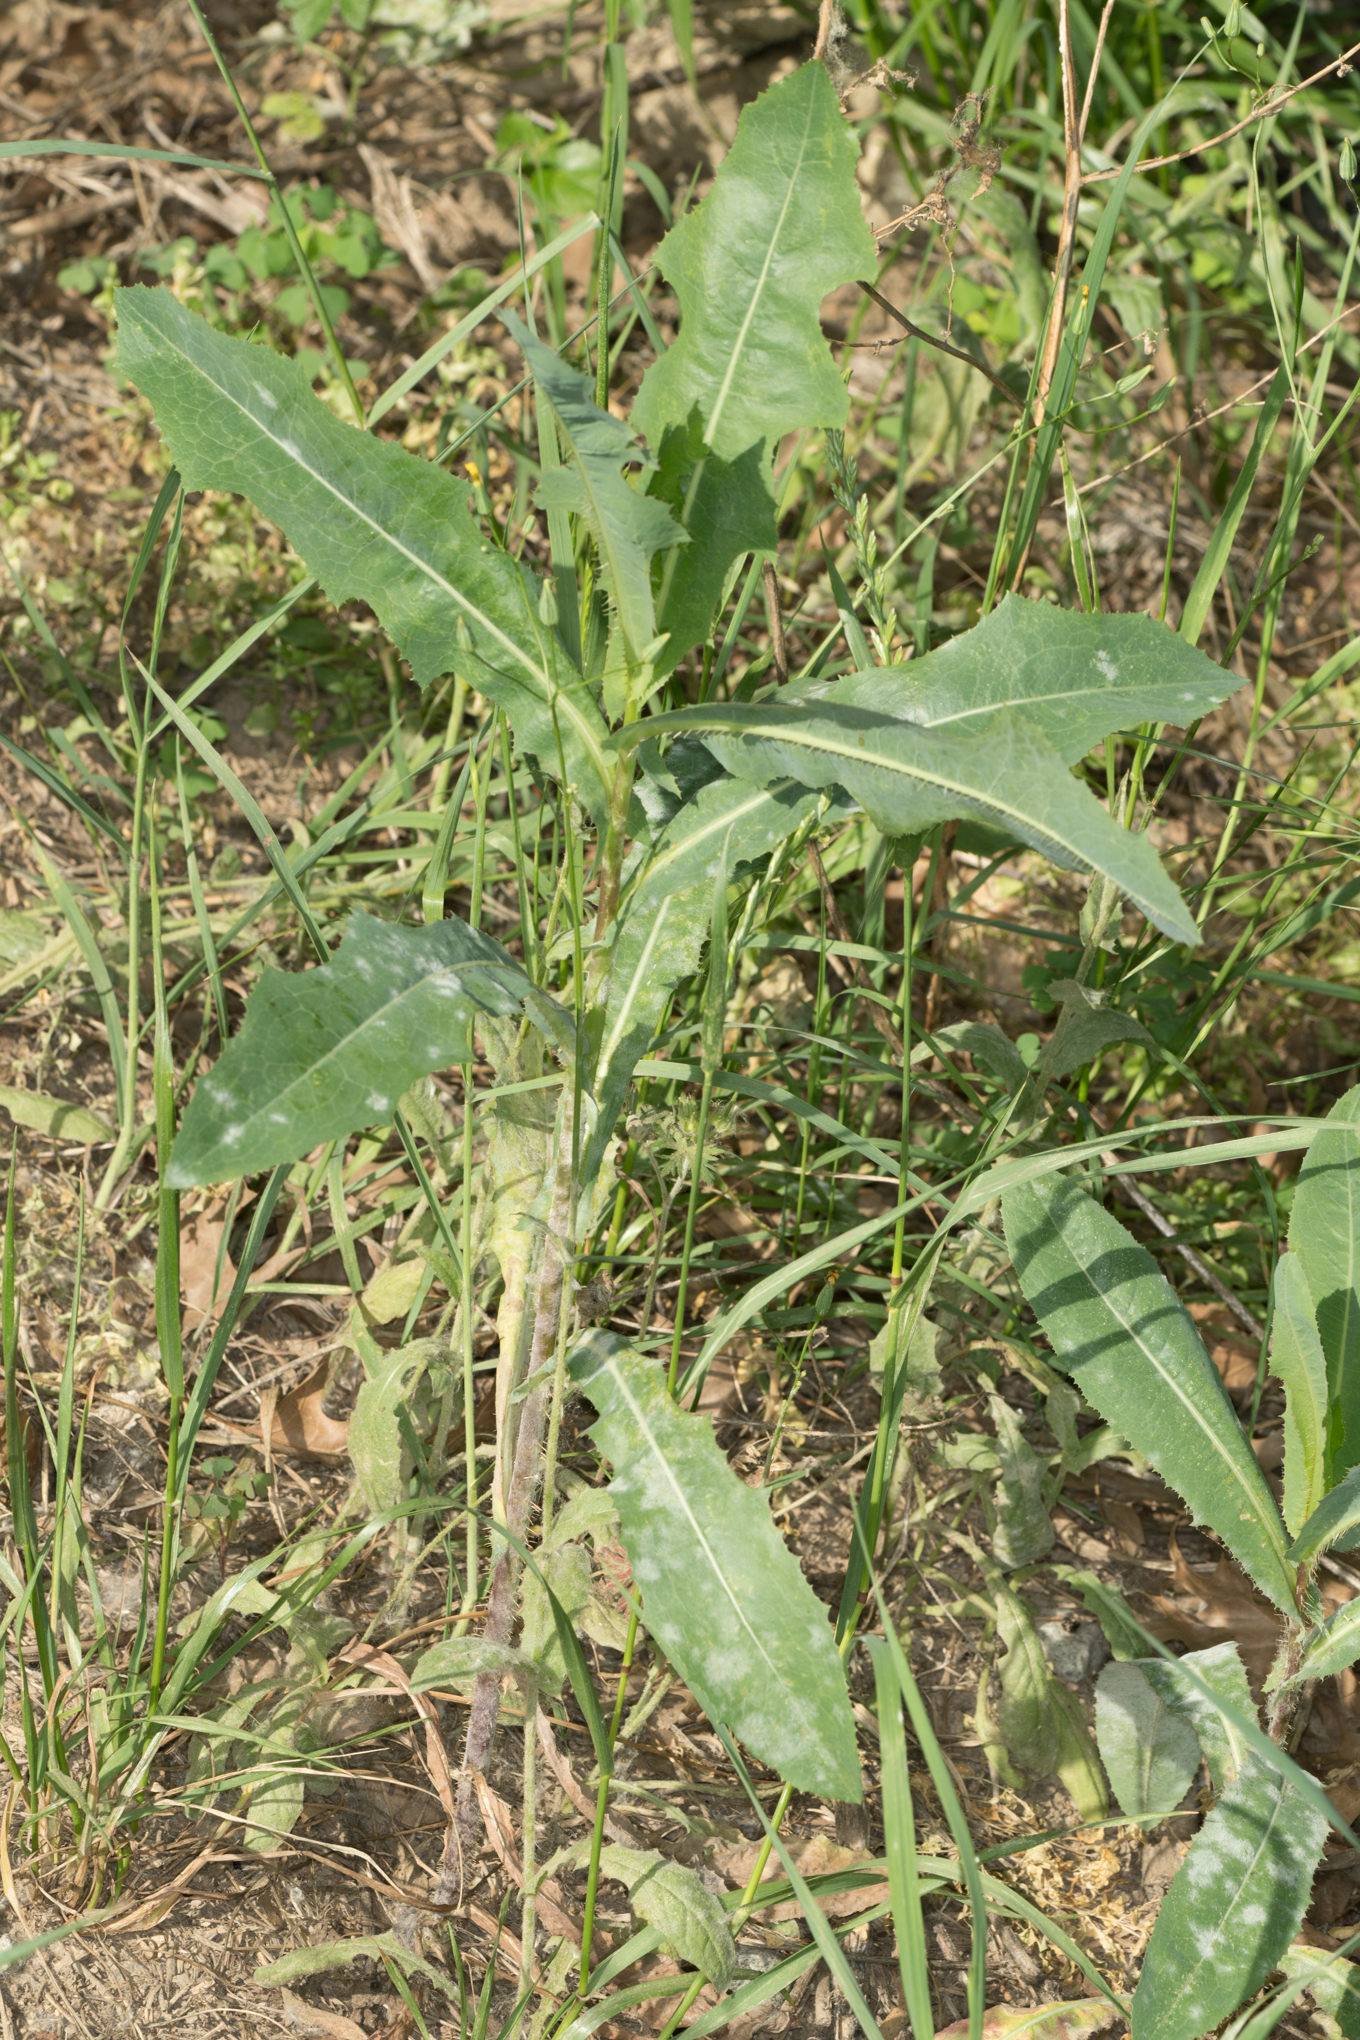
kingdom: Plantae
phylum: Tracheophyta
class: Magnoliopsida
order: Asterales
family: Asteraceae
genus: Lactuca
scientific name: Lactuca serriola
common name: Prickly lettuce
